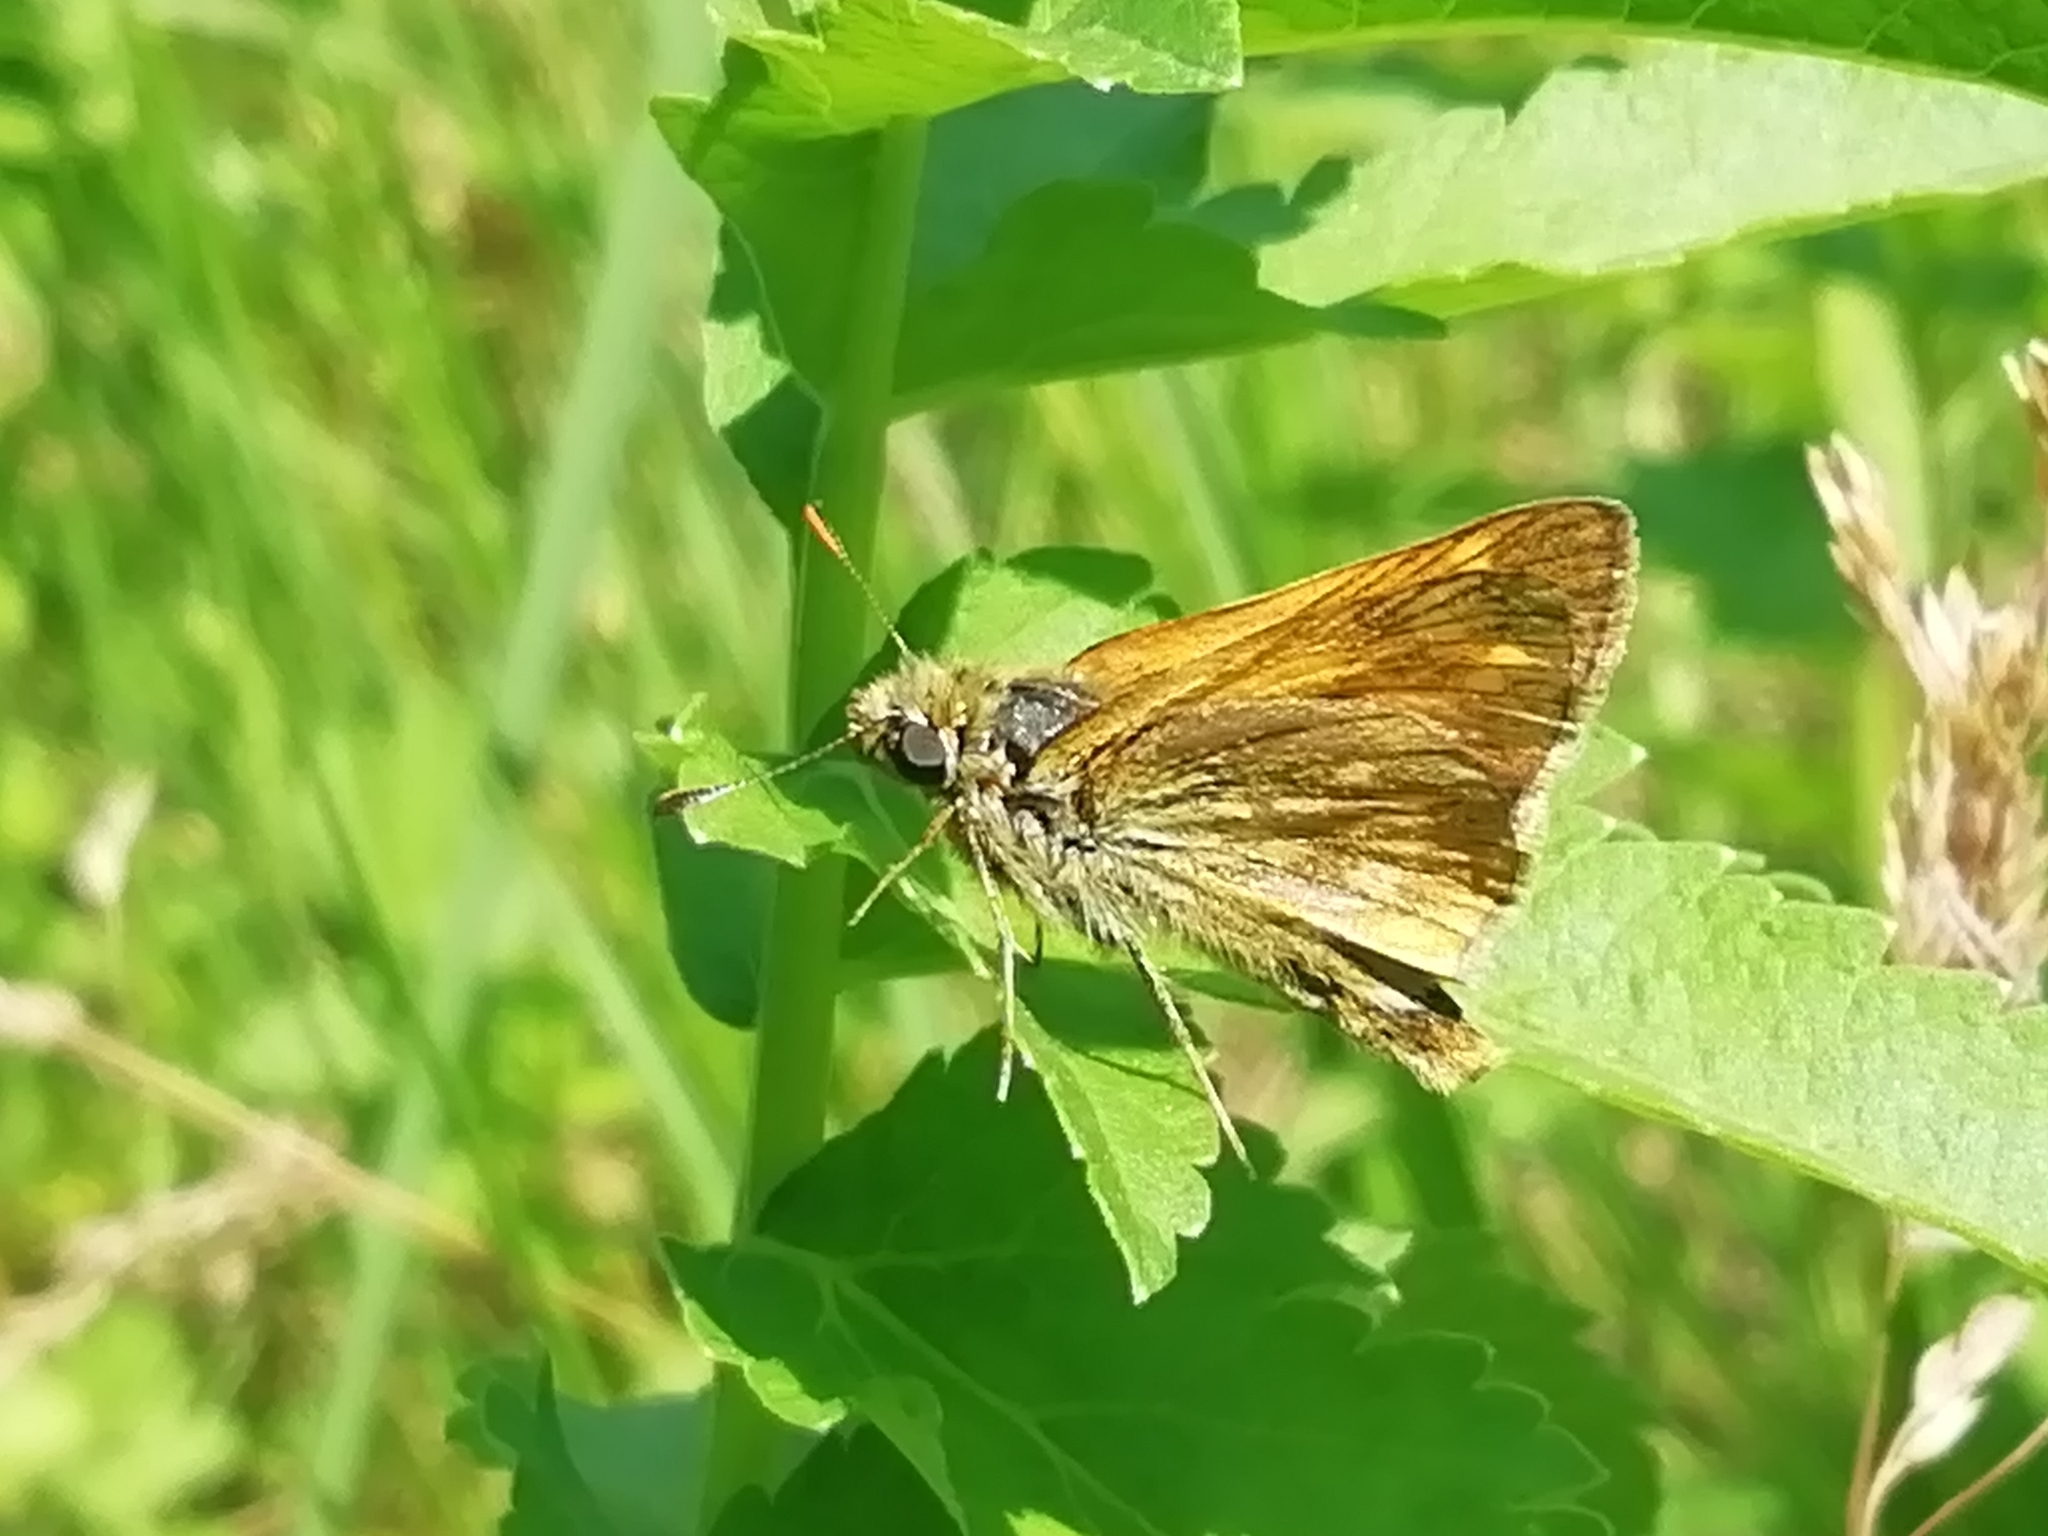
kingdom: Animalia
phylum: Arthropoda
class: Insecta
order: Lepidoptera
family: Hesperiidae
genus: Ochlodes
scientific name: Ochlodes venata
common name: Large skipper
